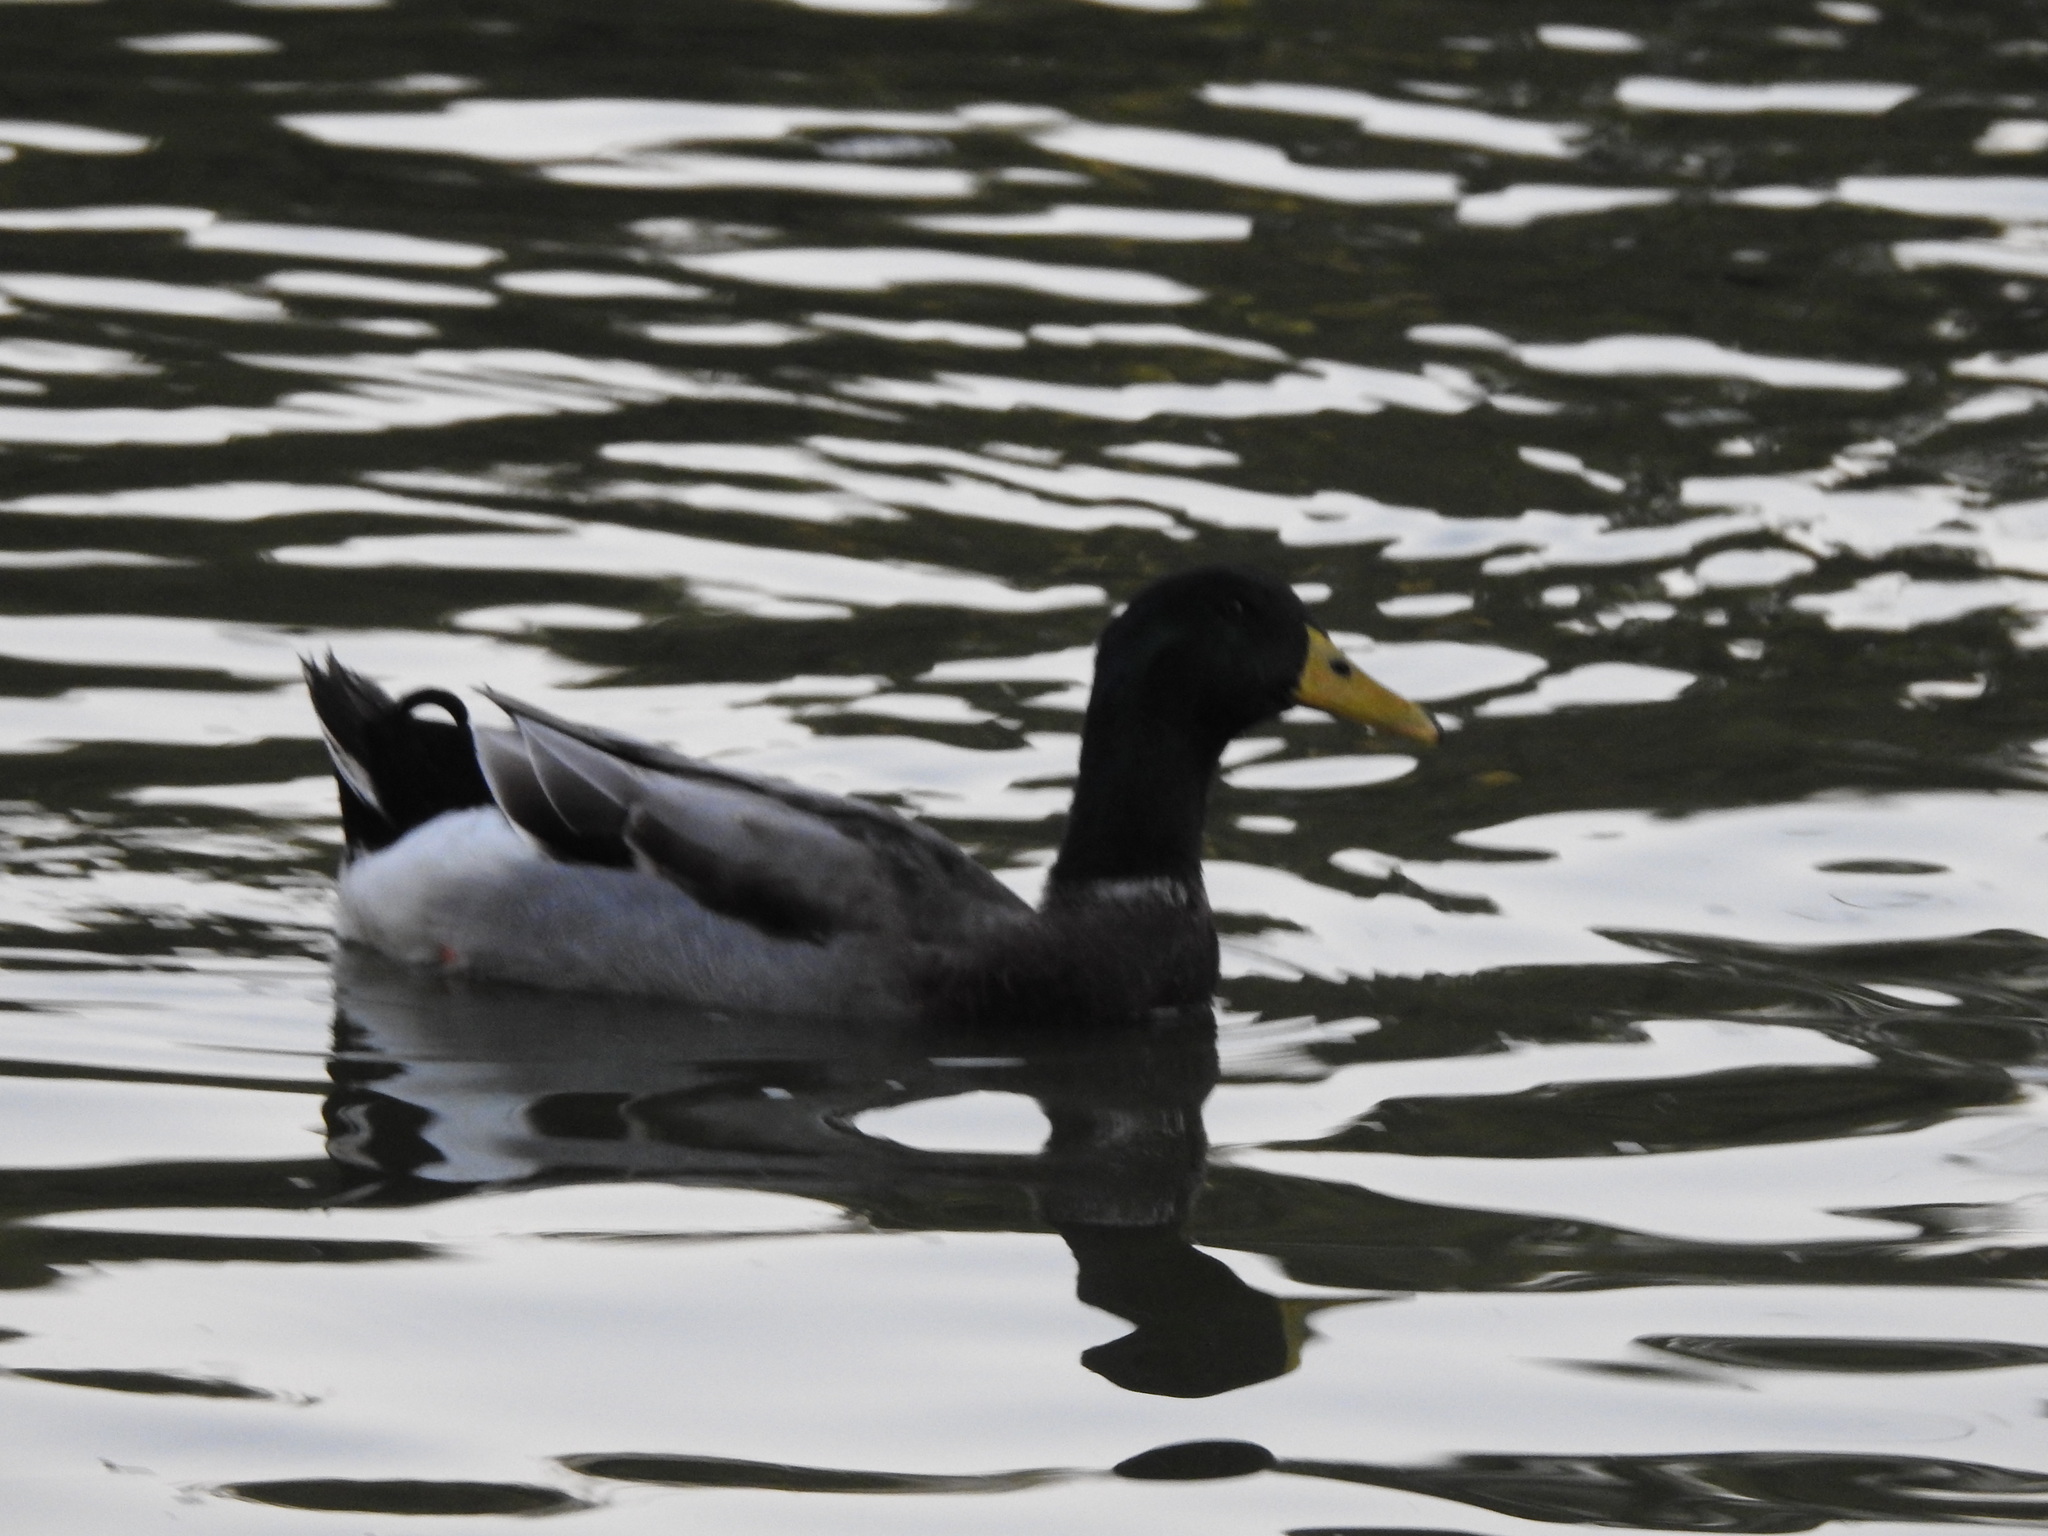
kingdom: Animalia
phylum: Chordata
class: Aves
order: Anseriformes
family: Anatidae
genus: Anas
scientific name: Anas platyrhynchos
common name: Mallard
